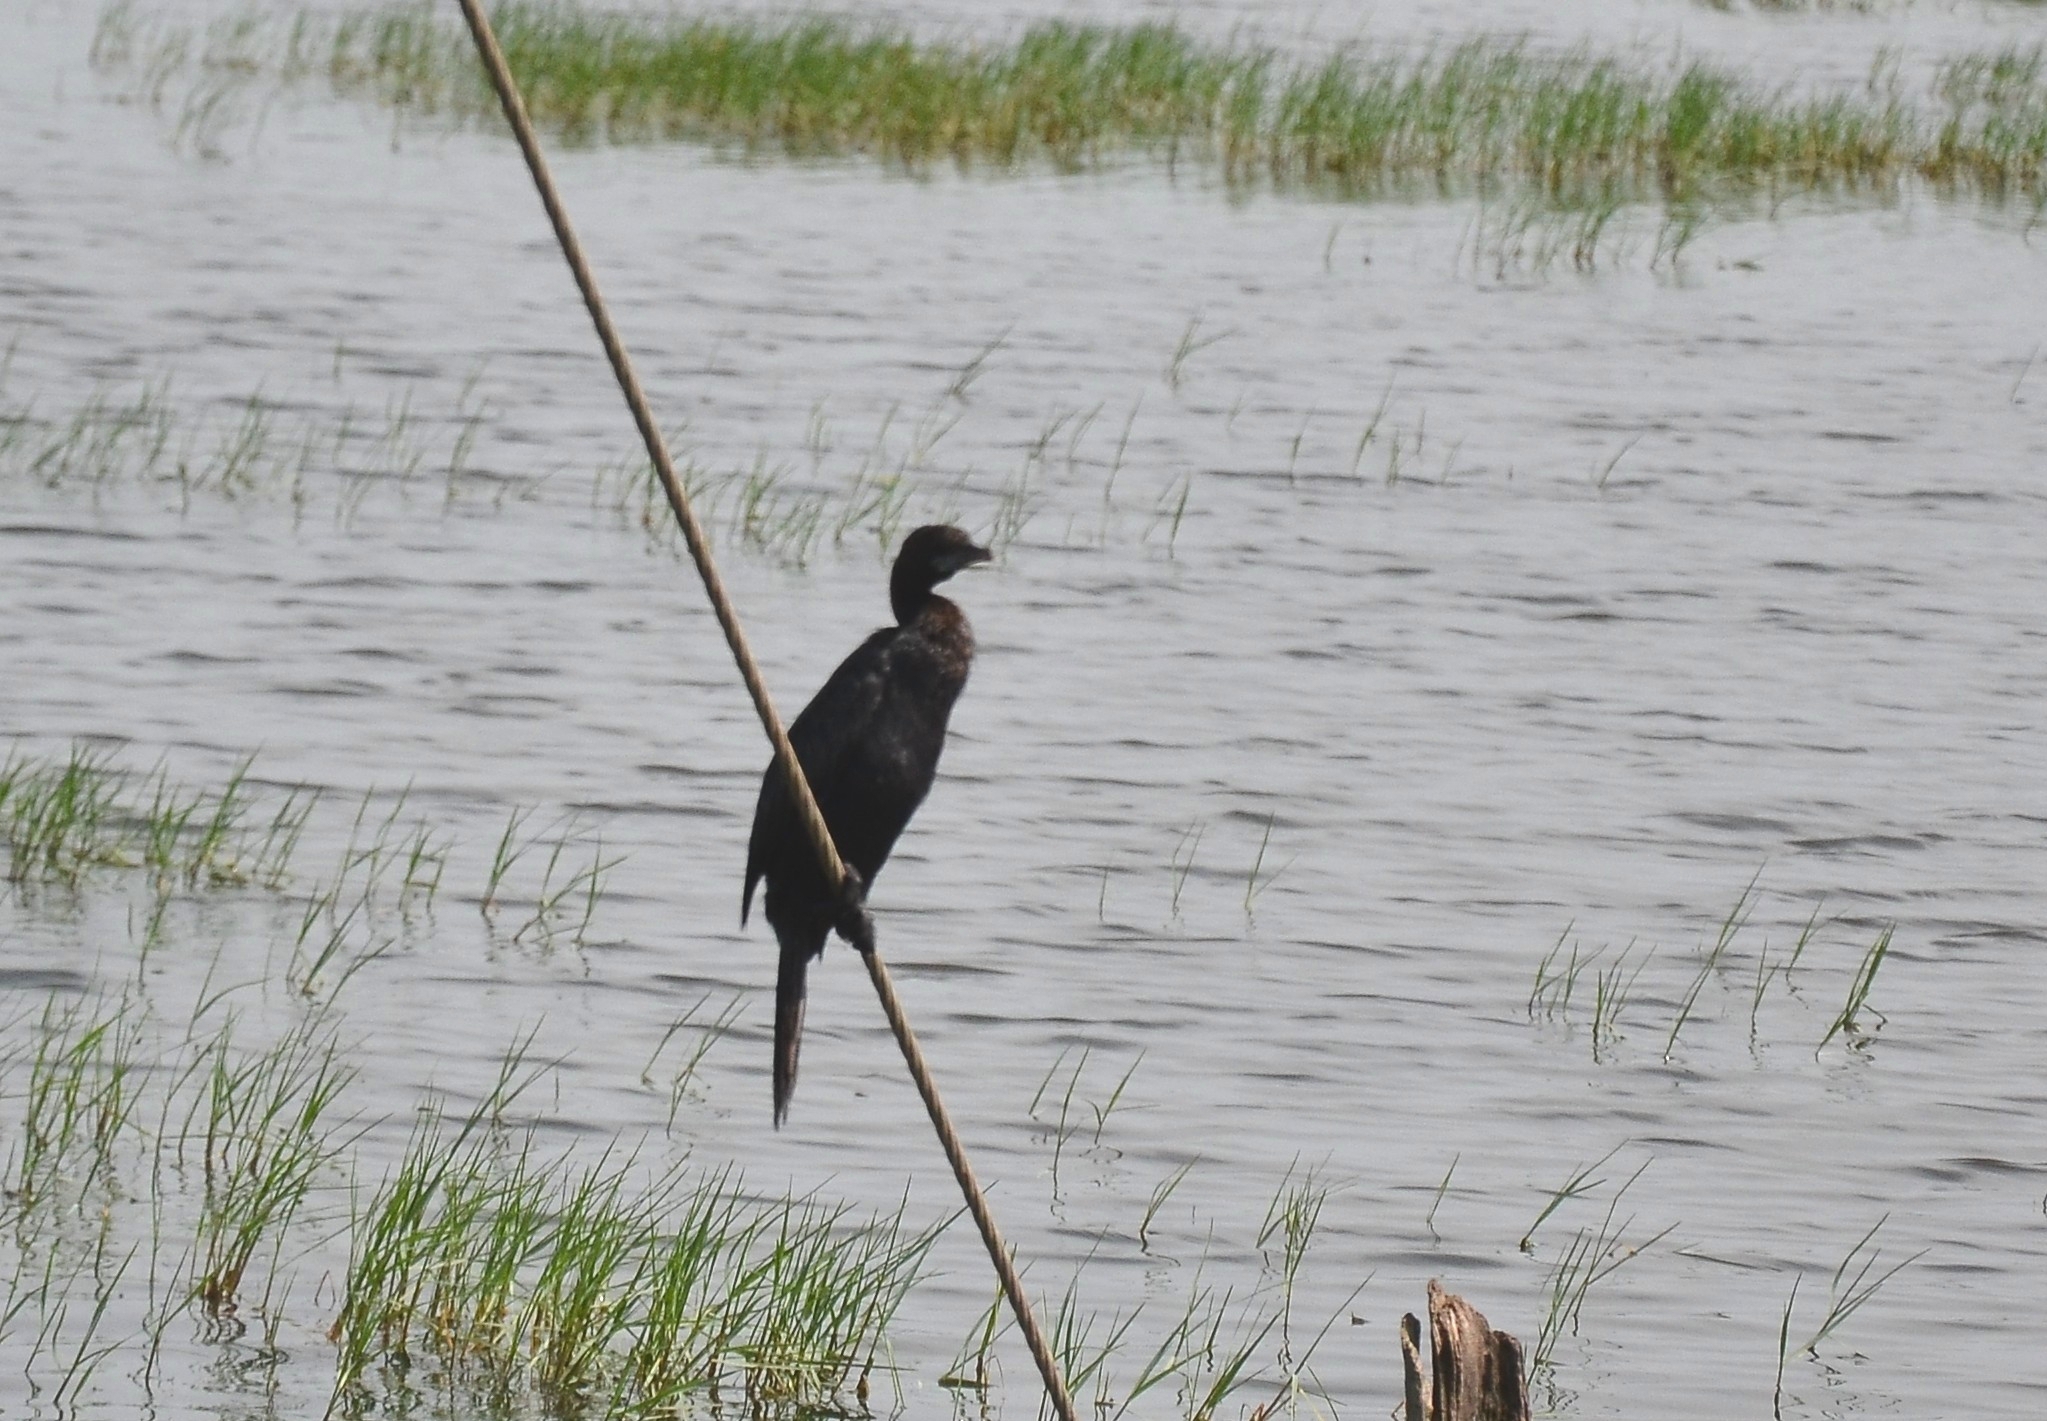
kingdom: Animalia
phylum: Chordata
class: Aves
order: Suliformes
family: Phalacrocoracidae
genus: Microcarbo
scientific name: Microcarbo niger
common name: Little cormorant
